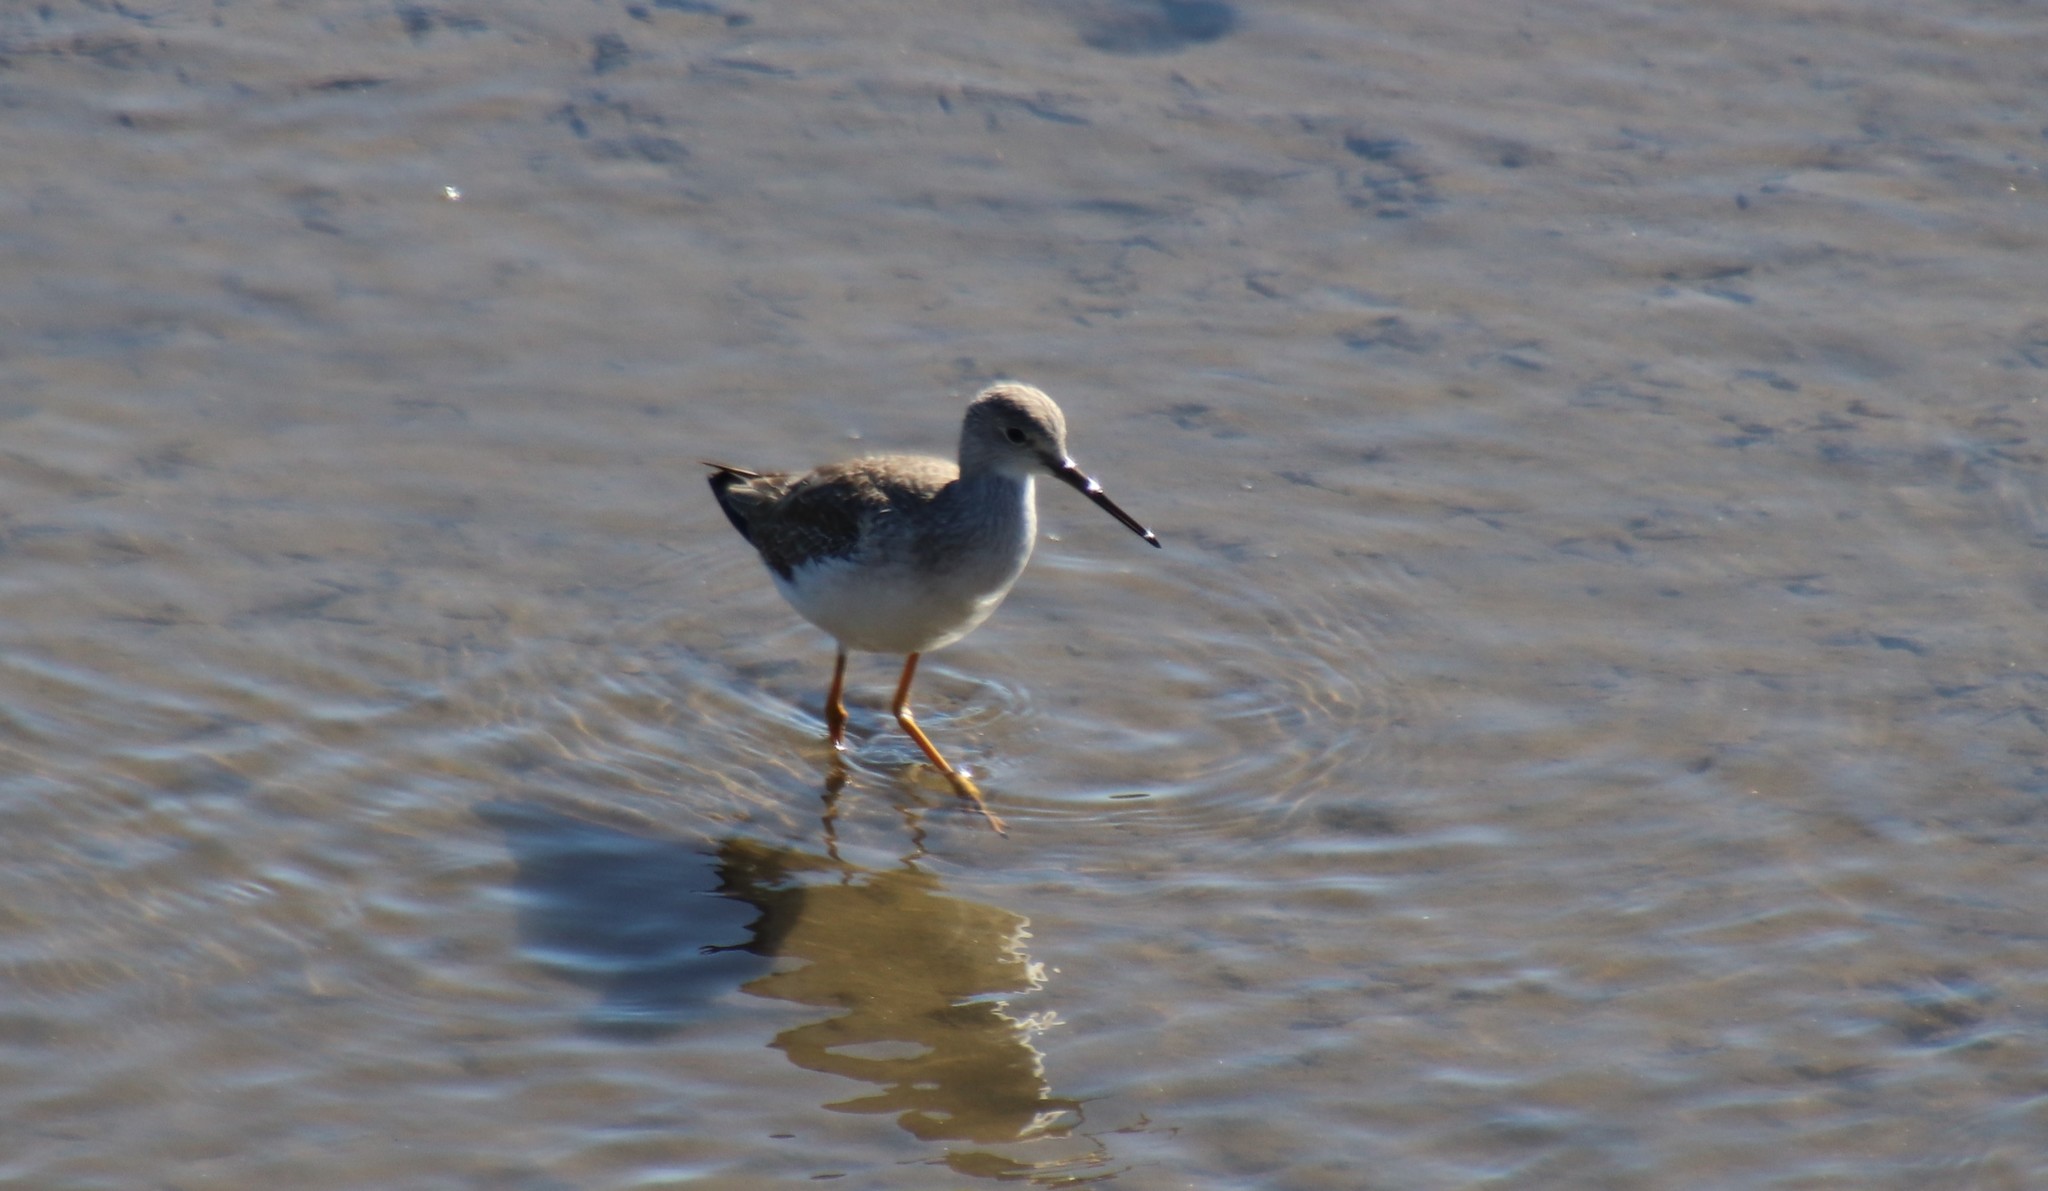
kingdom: Animalia
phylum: Chordata
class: Aves
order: Charadriiformes
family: Scolopacidae
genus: Tringa
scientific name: Tringa melanoleuca
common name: Greater yellowlegs
